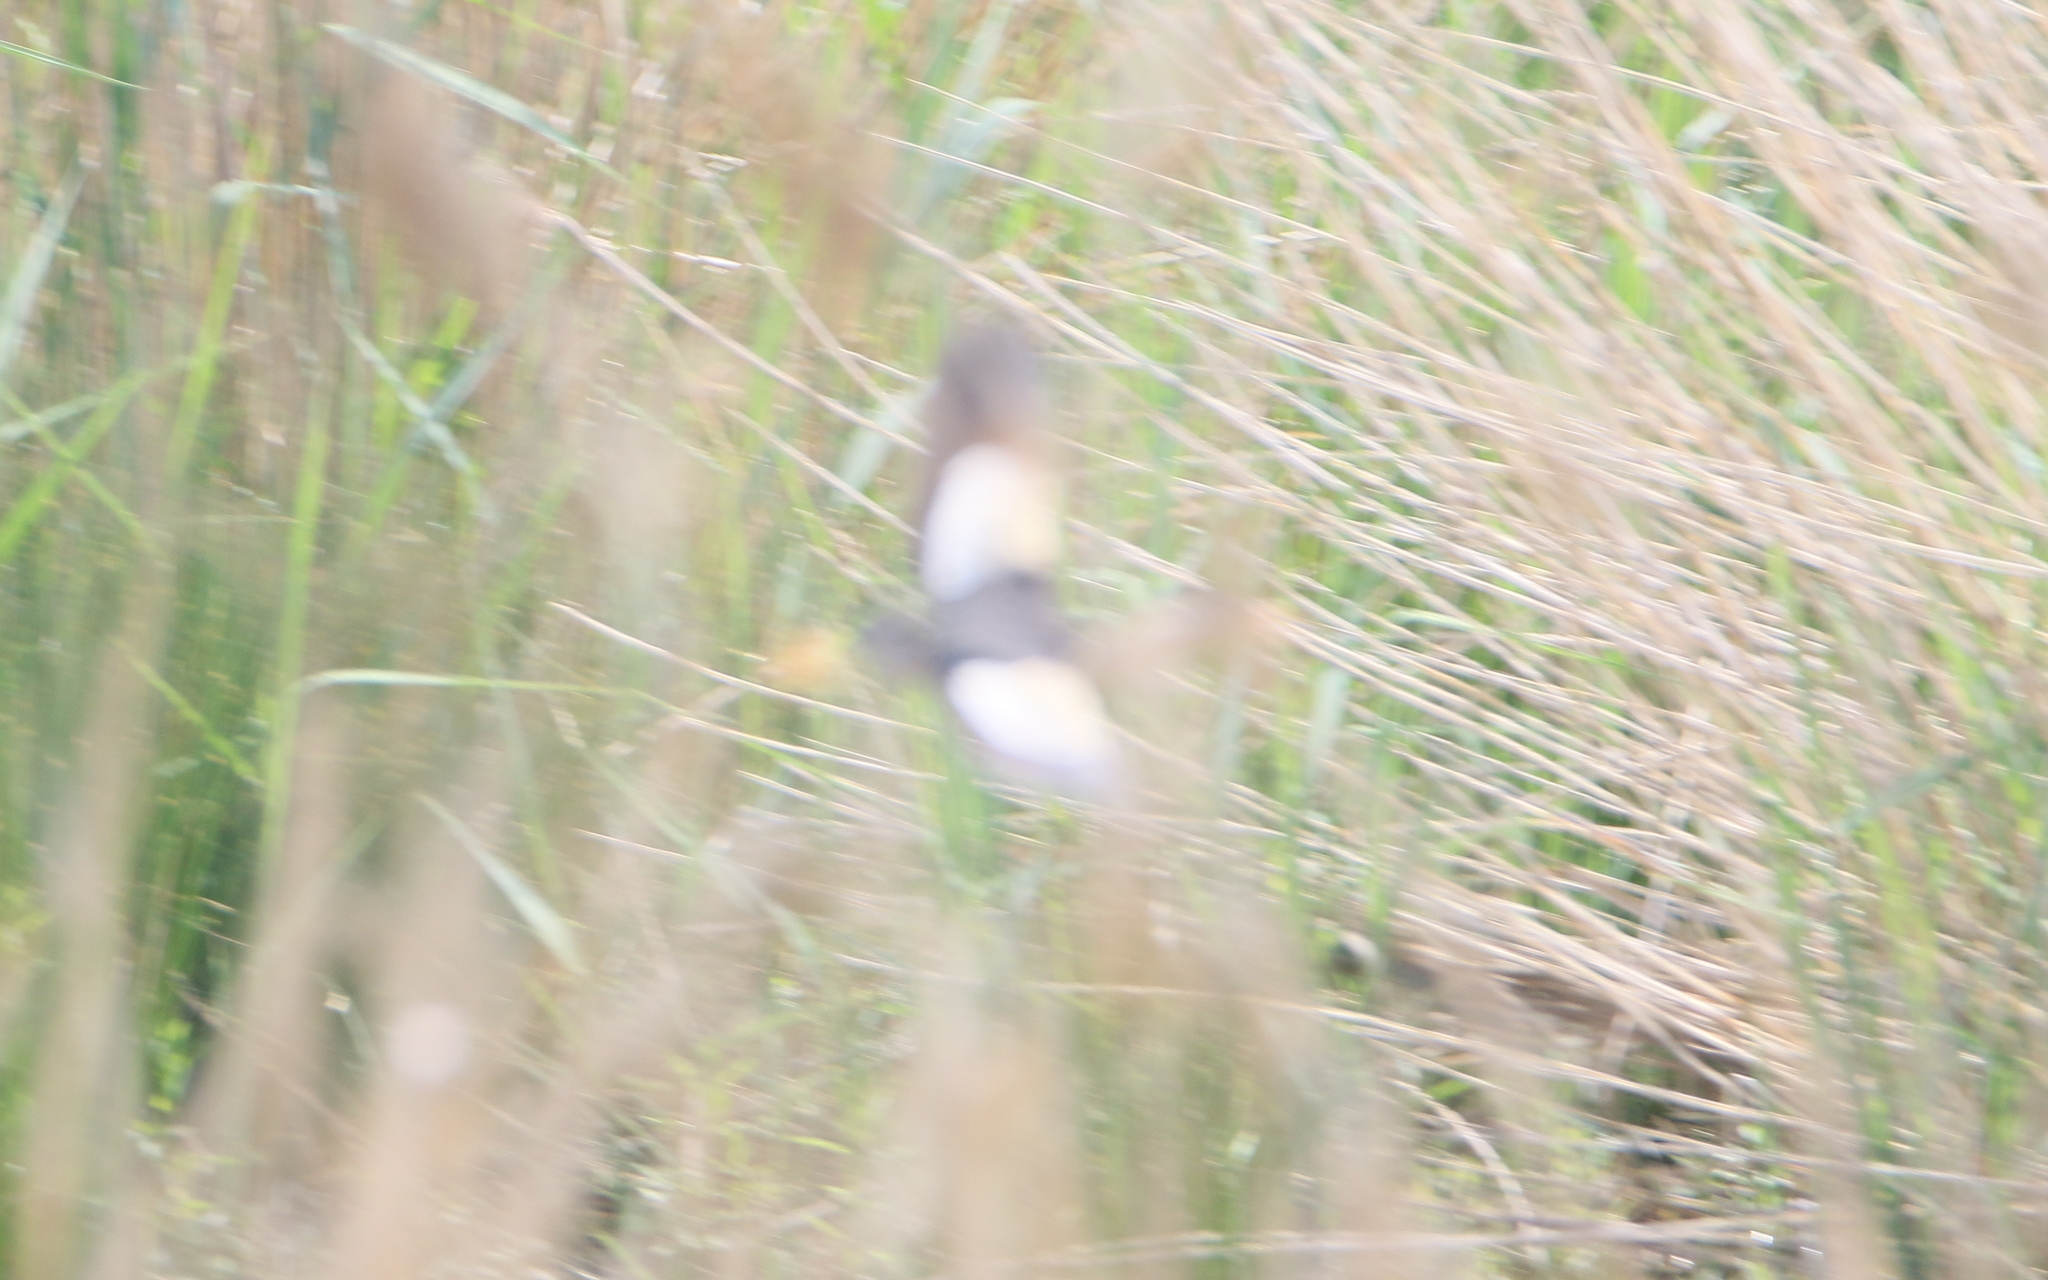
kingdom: Animalia
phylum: Chordata
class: Aves
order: Pelecaniformes
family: Ardeidae
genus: Ixobrychus
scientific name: Ixobrychus minutus
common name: Little bittern
